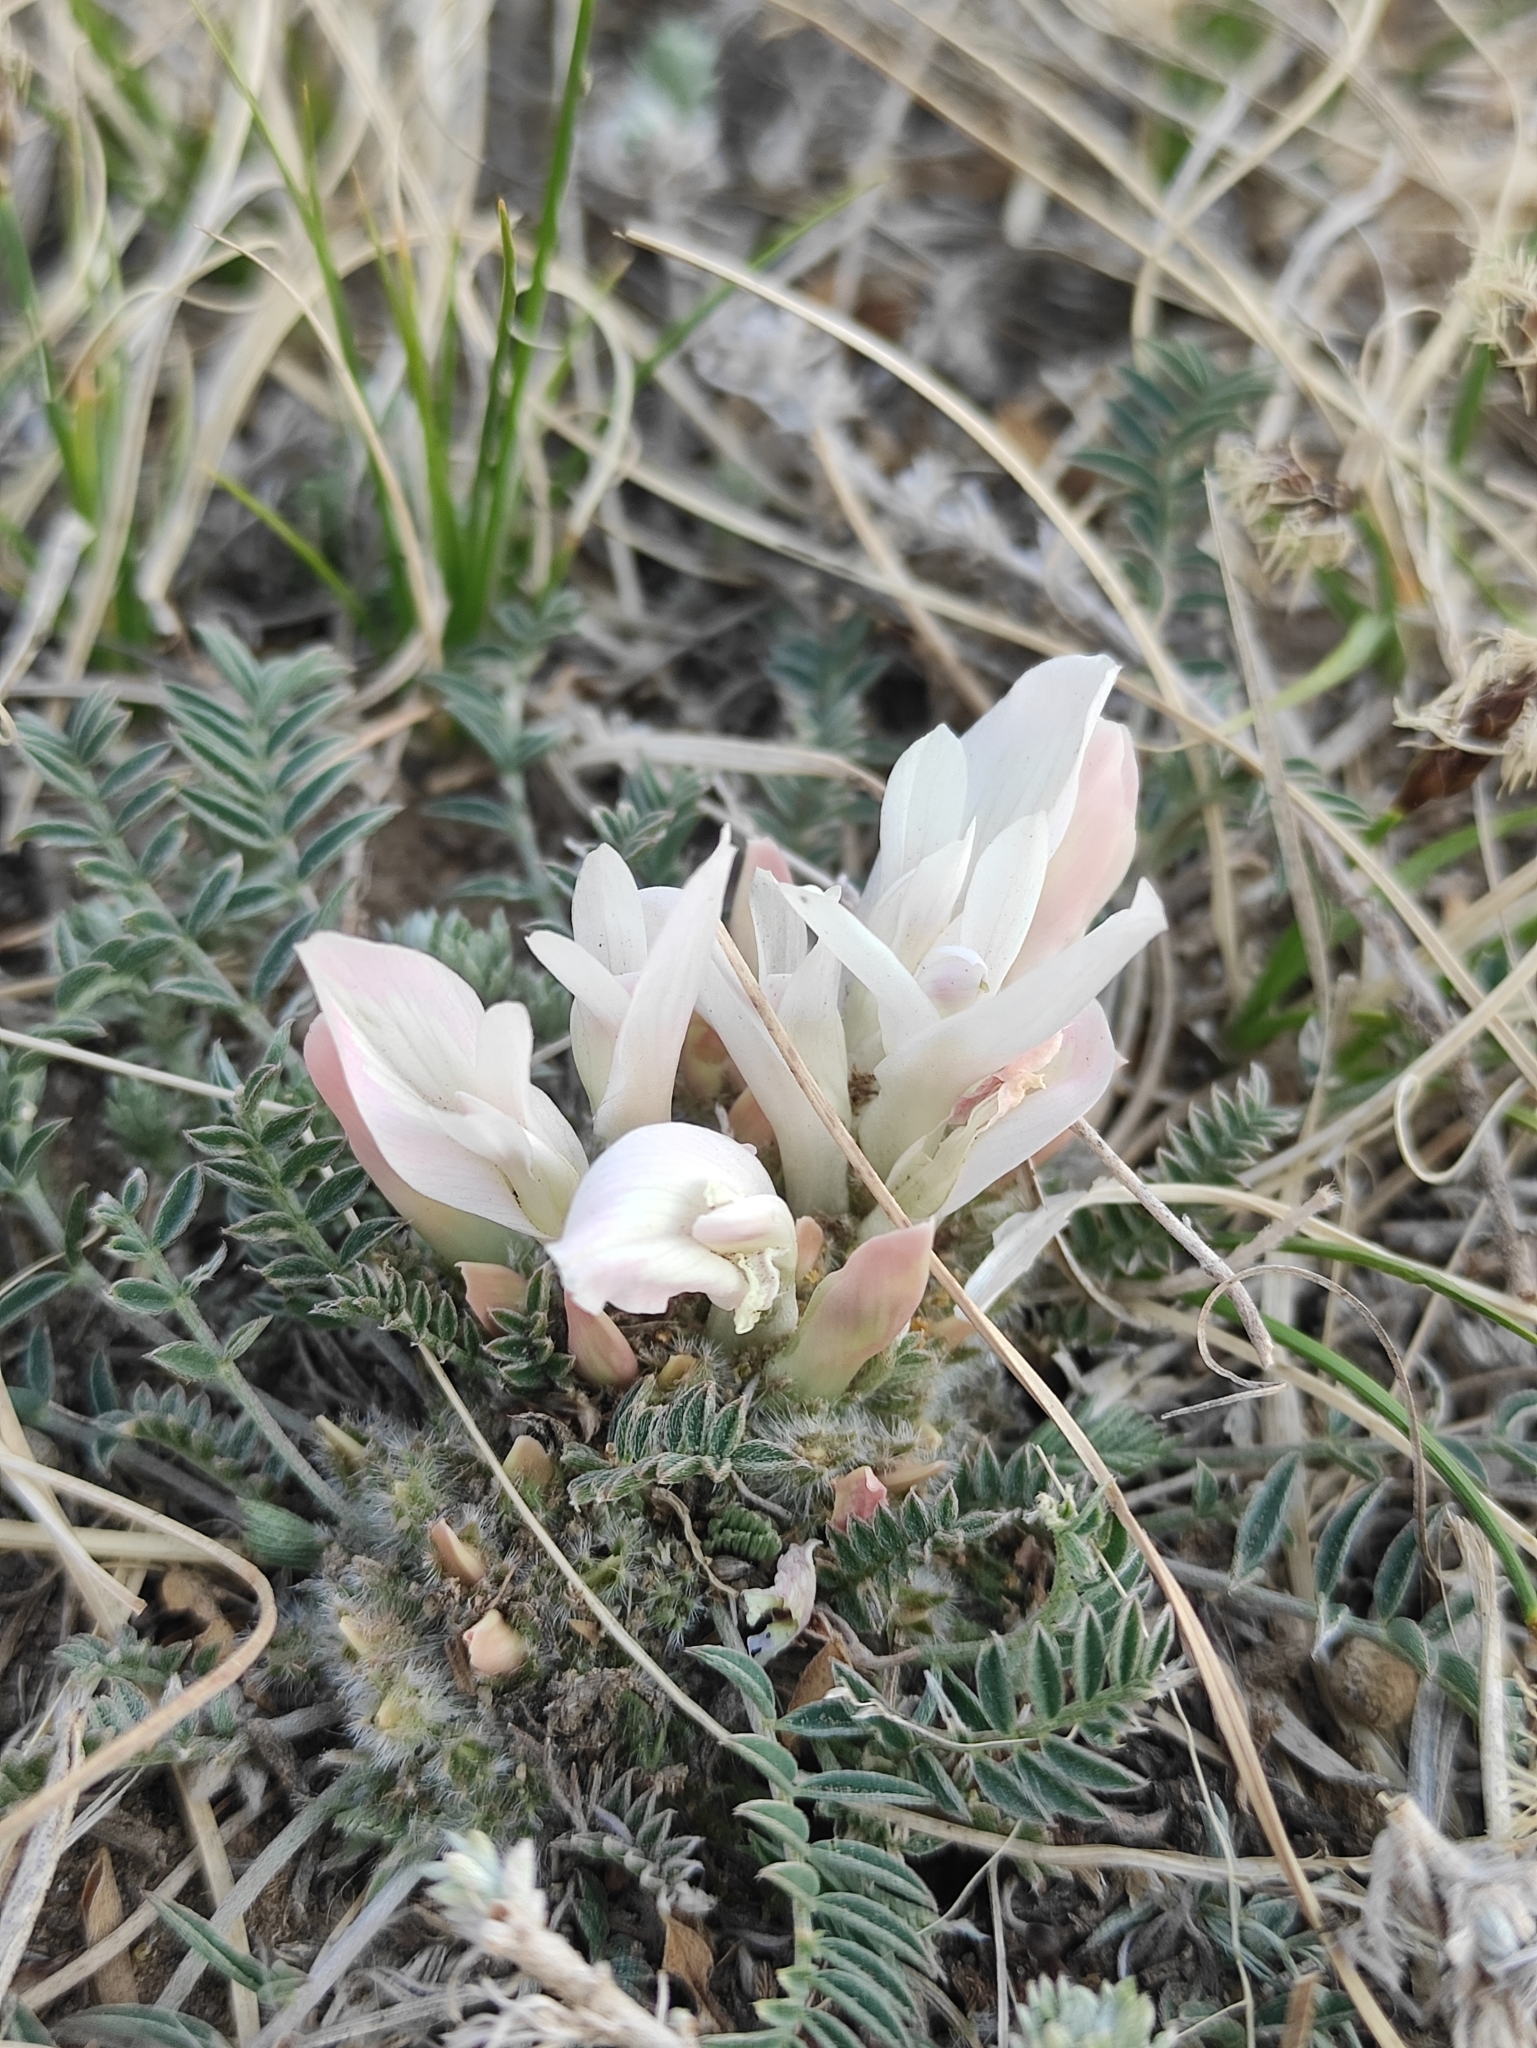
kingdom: Plantae
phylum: Tracheophyta
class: Magnoliopsida
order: Fabales
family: Fabaceae
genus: Astragalus
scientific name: Astragalus galactites
